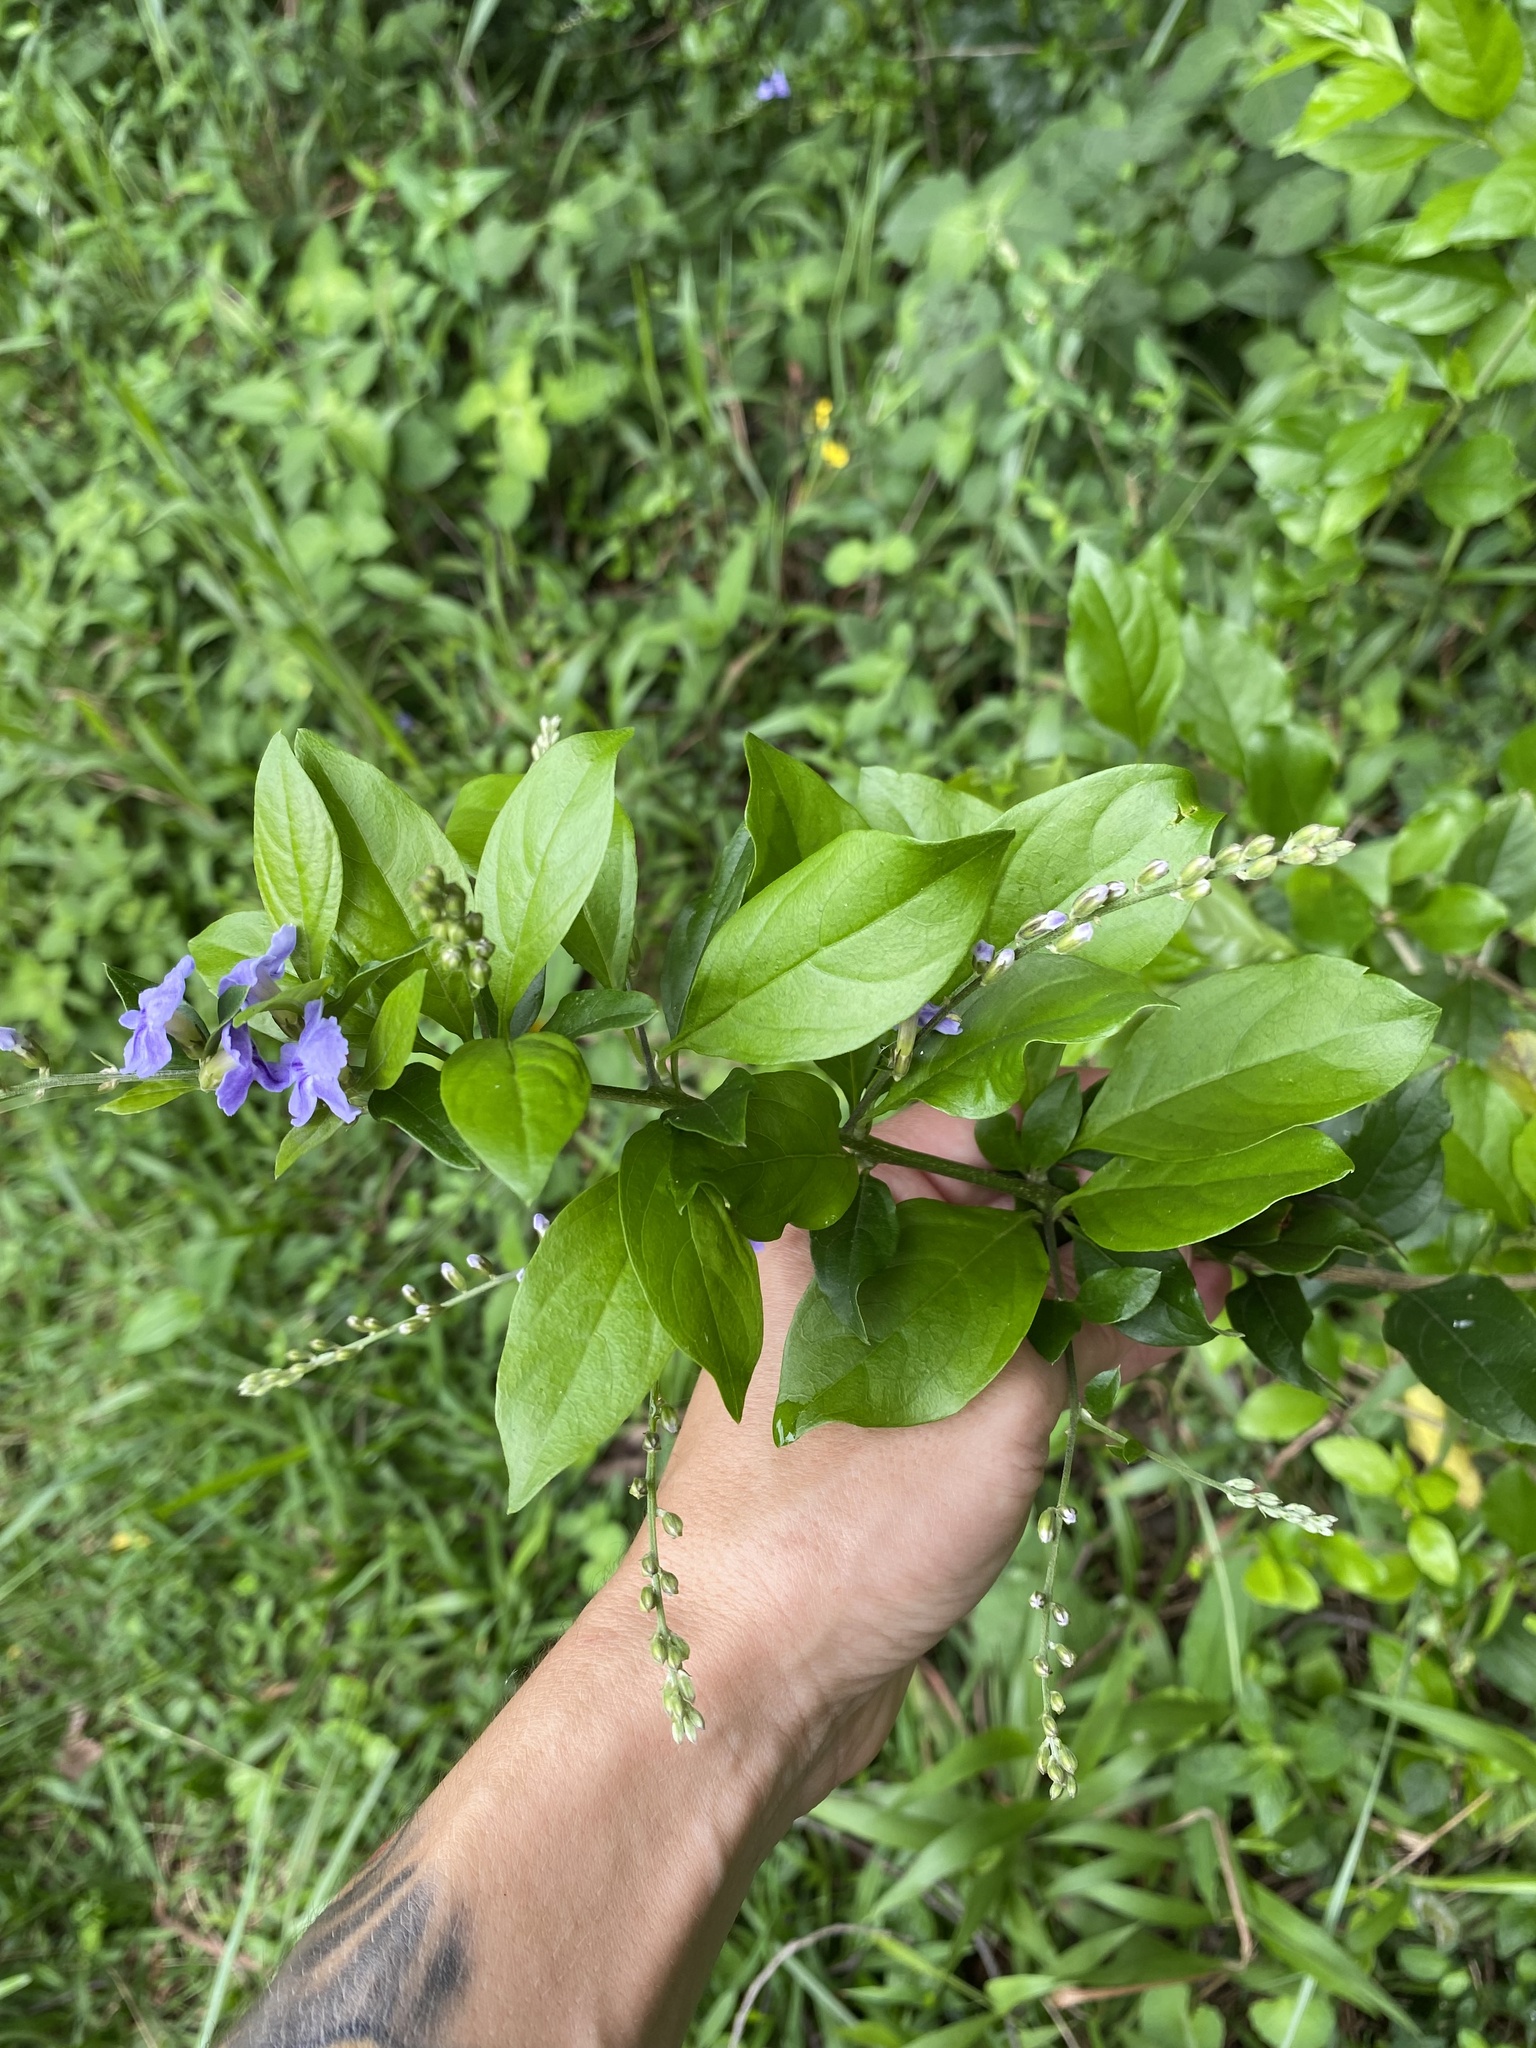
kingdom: Plantae
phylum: Tracheophyta
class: Magnoliopsida
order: Lamiales
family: Verbenaceae
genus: Duranta
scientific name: Duranta erecta
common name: Golden dewdrops
